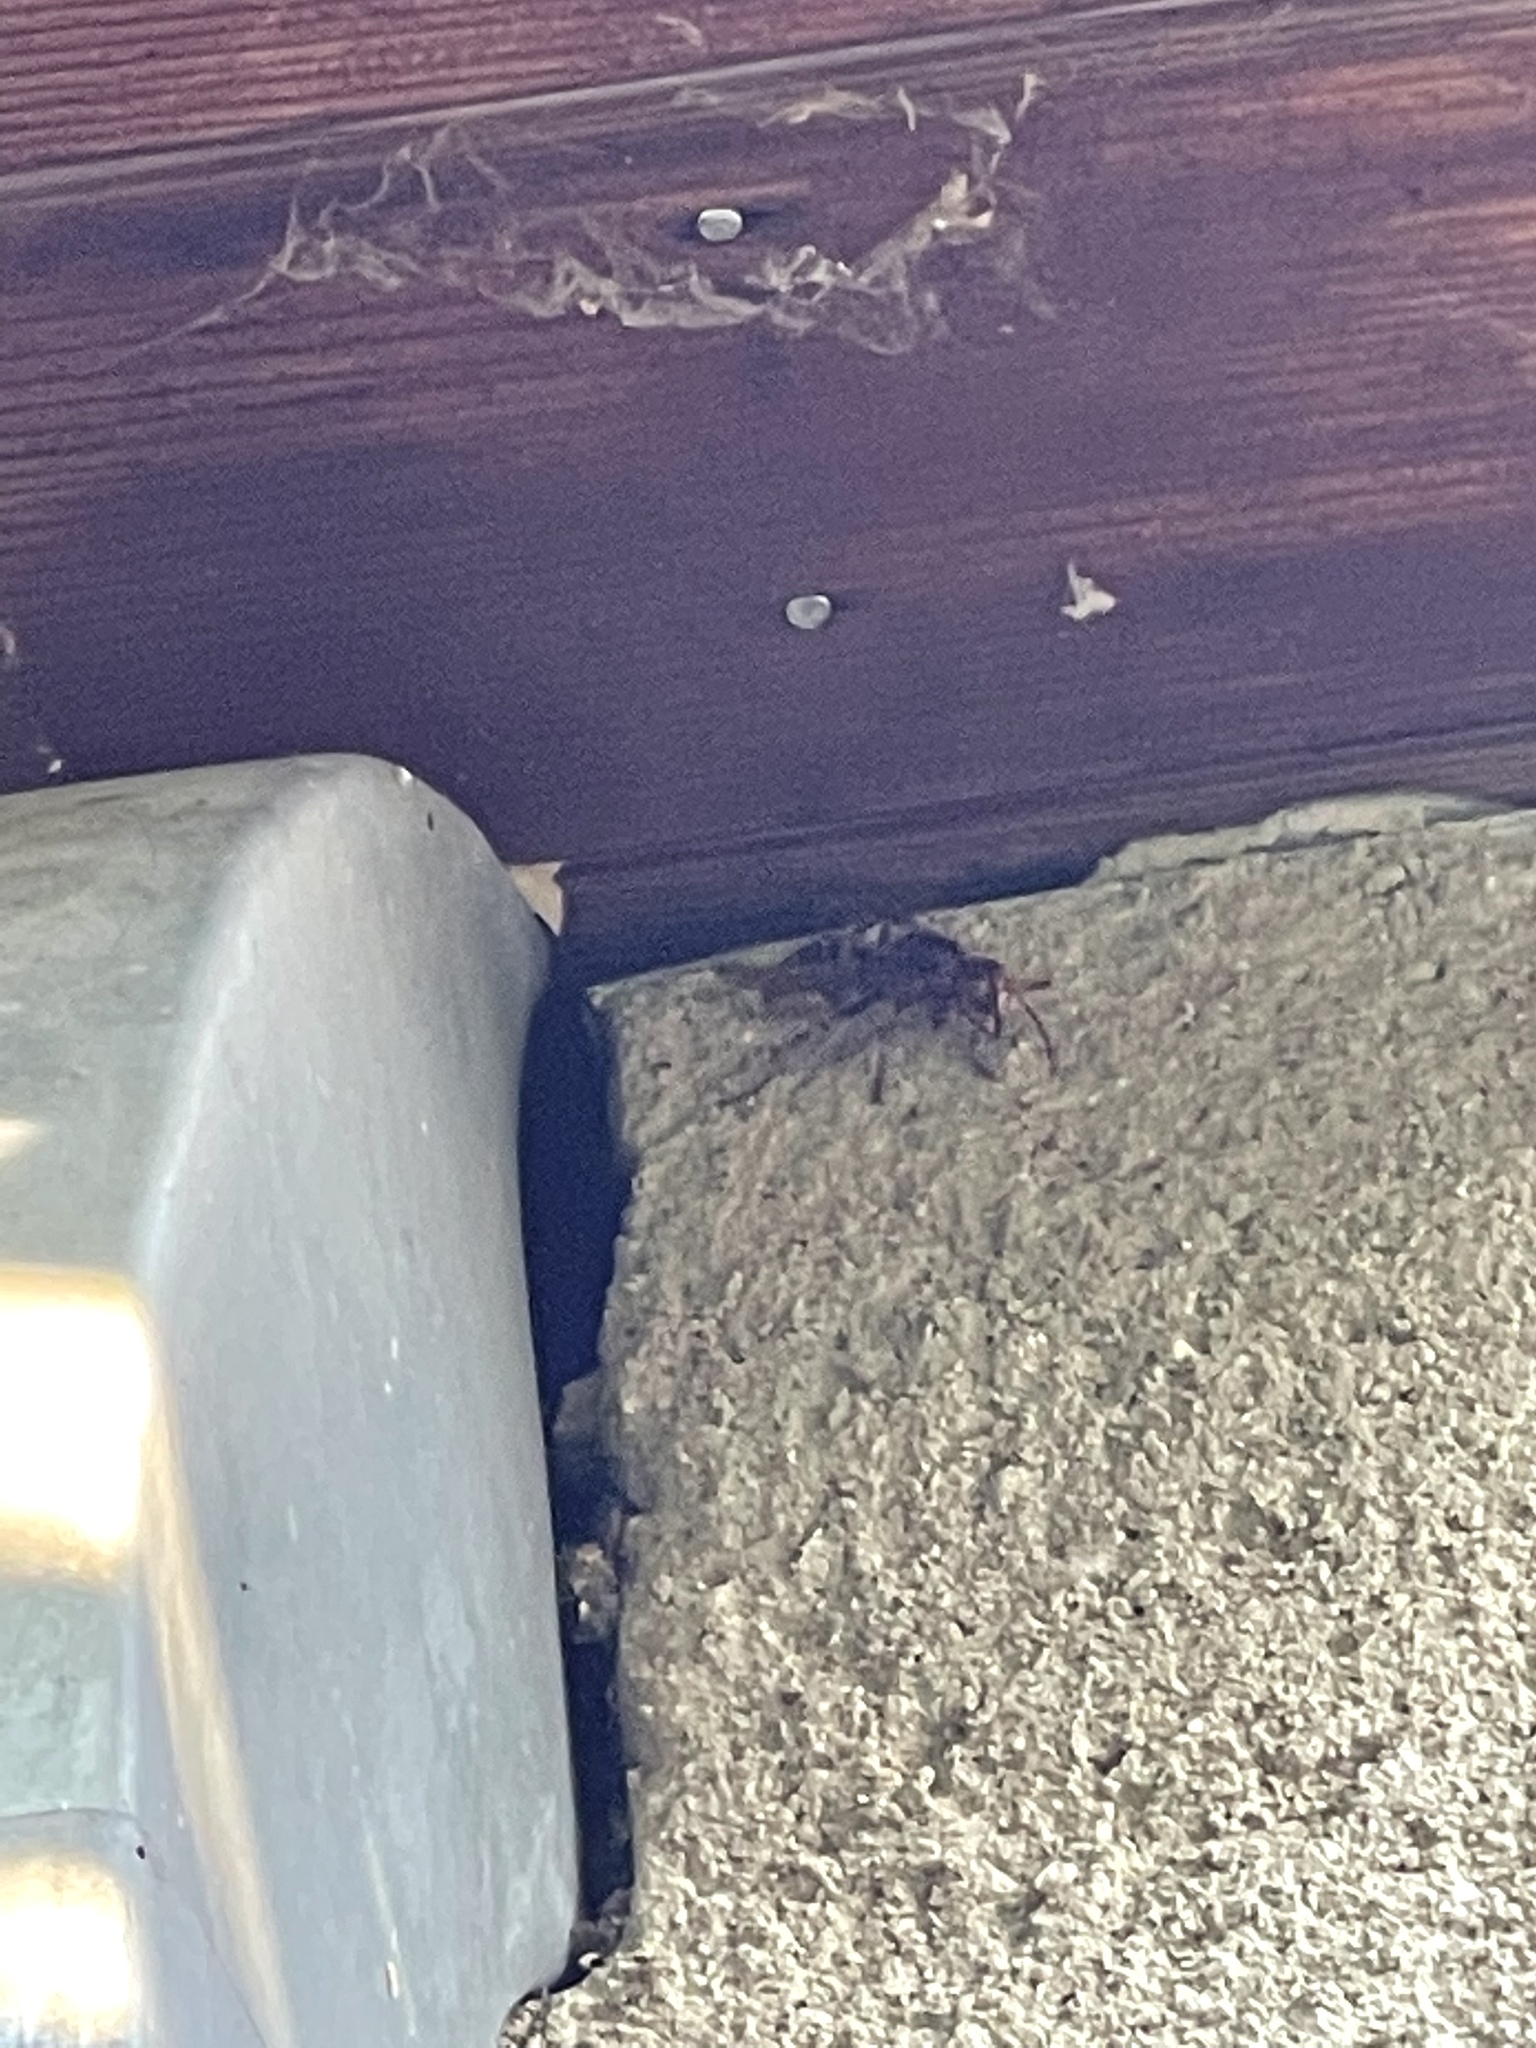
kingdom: Animalia
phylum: Arthropoda
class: Insecta
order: Hymenoptera
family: Vespidae
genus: Vespa
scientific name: Vespa crabro
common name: Hornet
